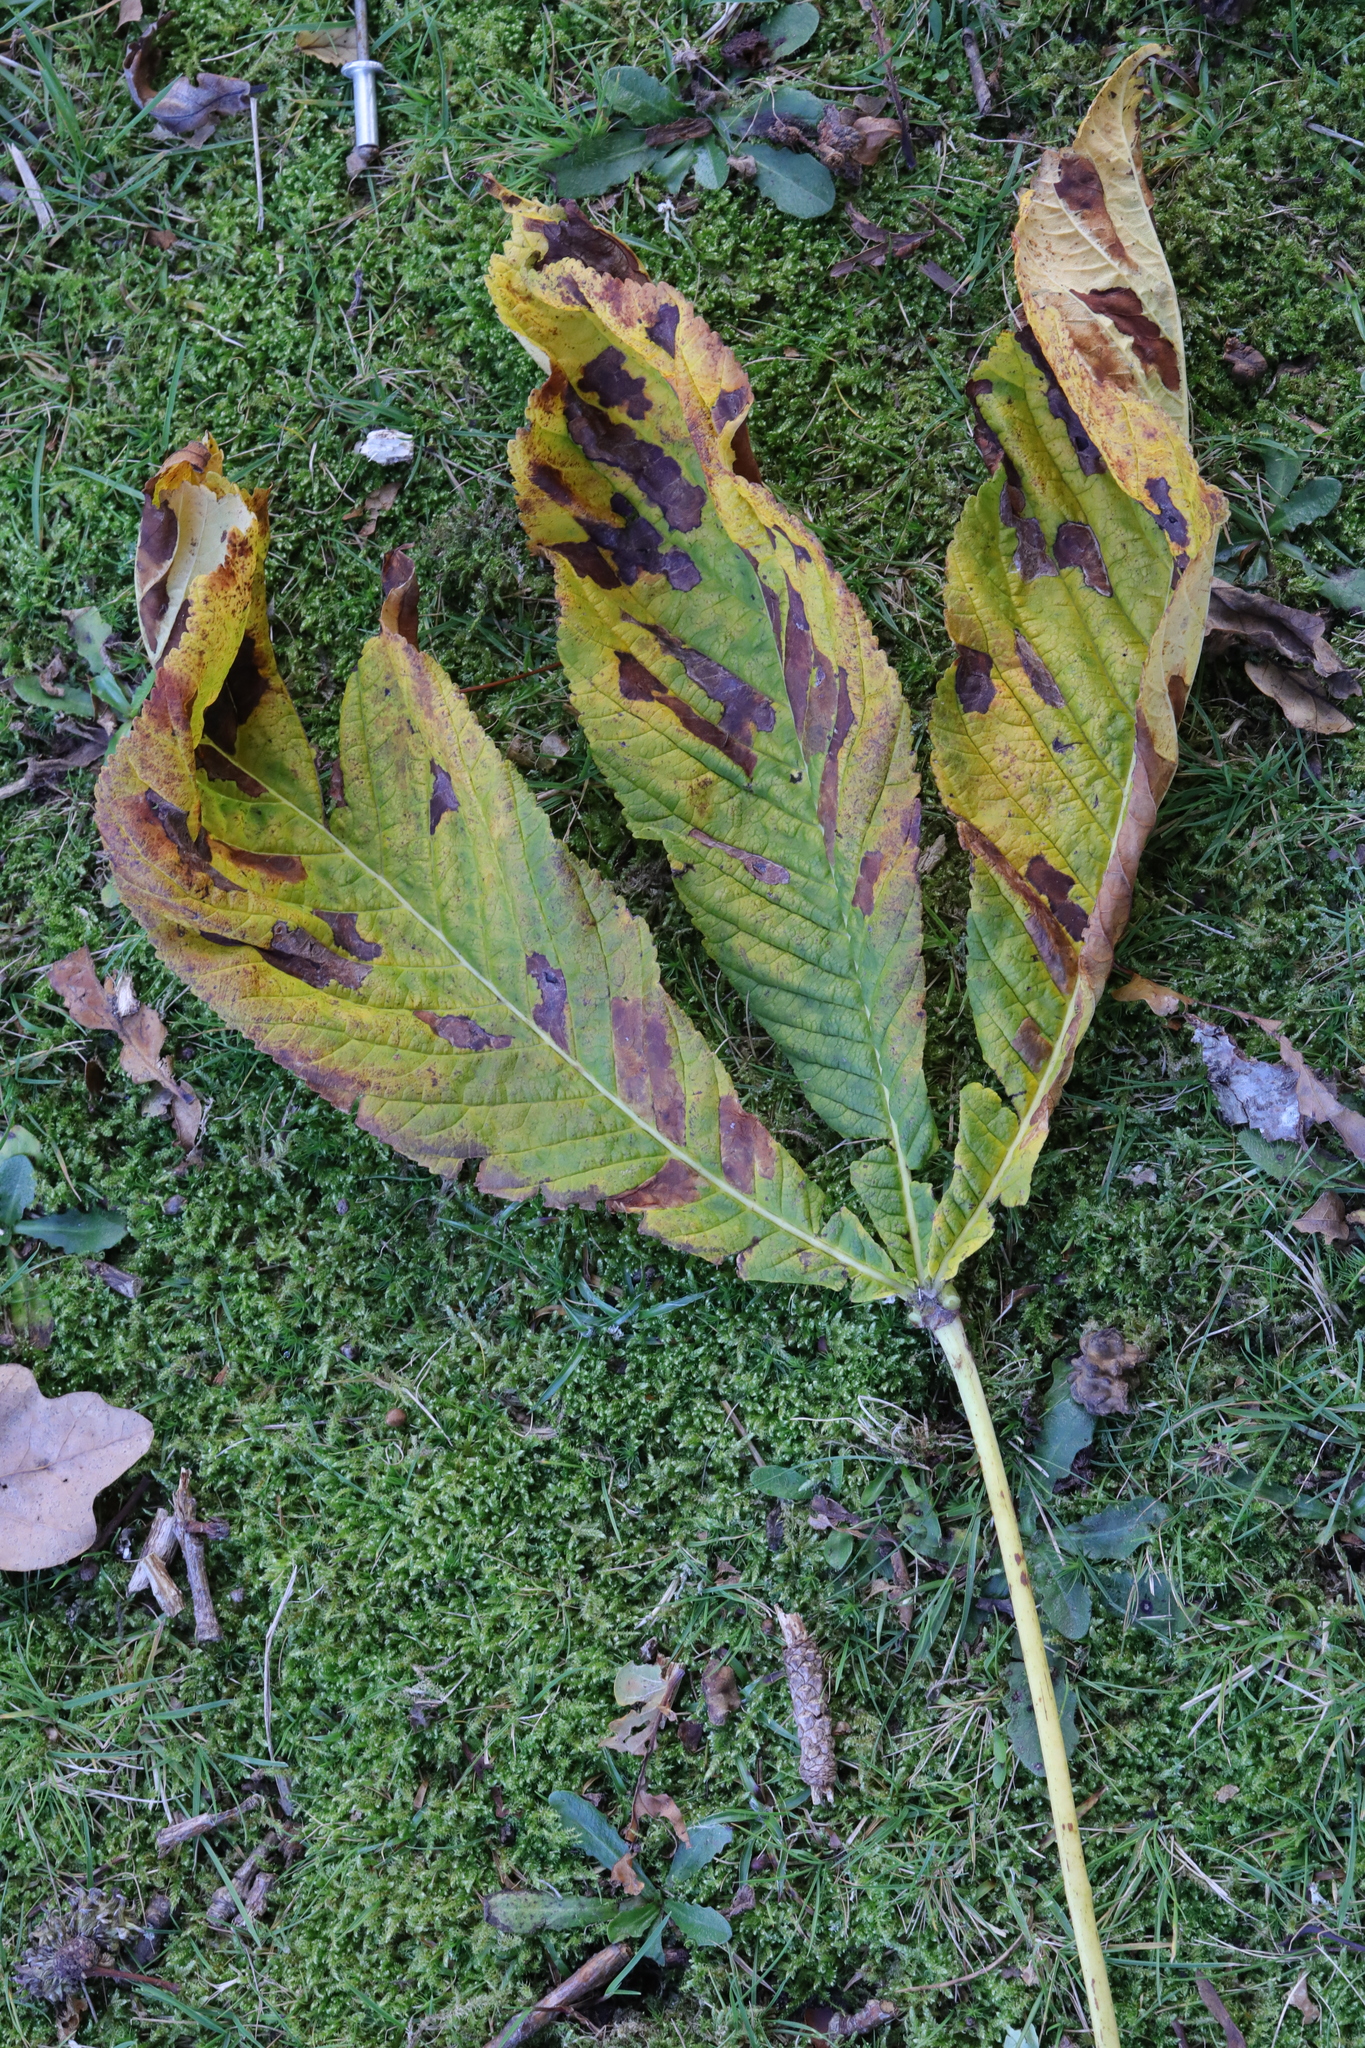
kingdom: Plantae
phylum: Tracheophyta
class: Magnoliopsida
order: Sapindales
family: Sapindaceae
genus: Aesculus
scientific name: Aesculus hippocastanum
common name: Horse-chestnut
